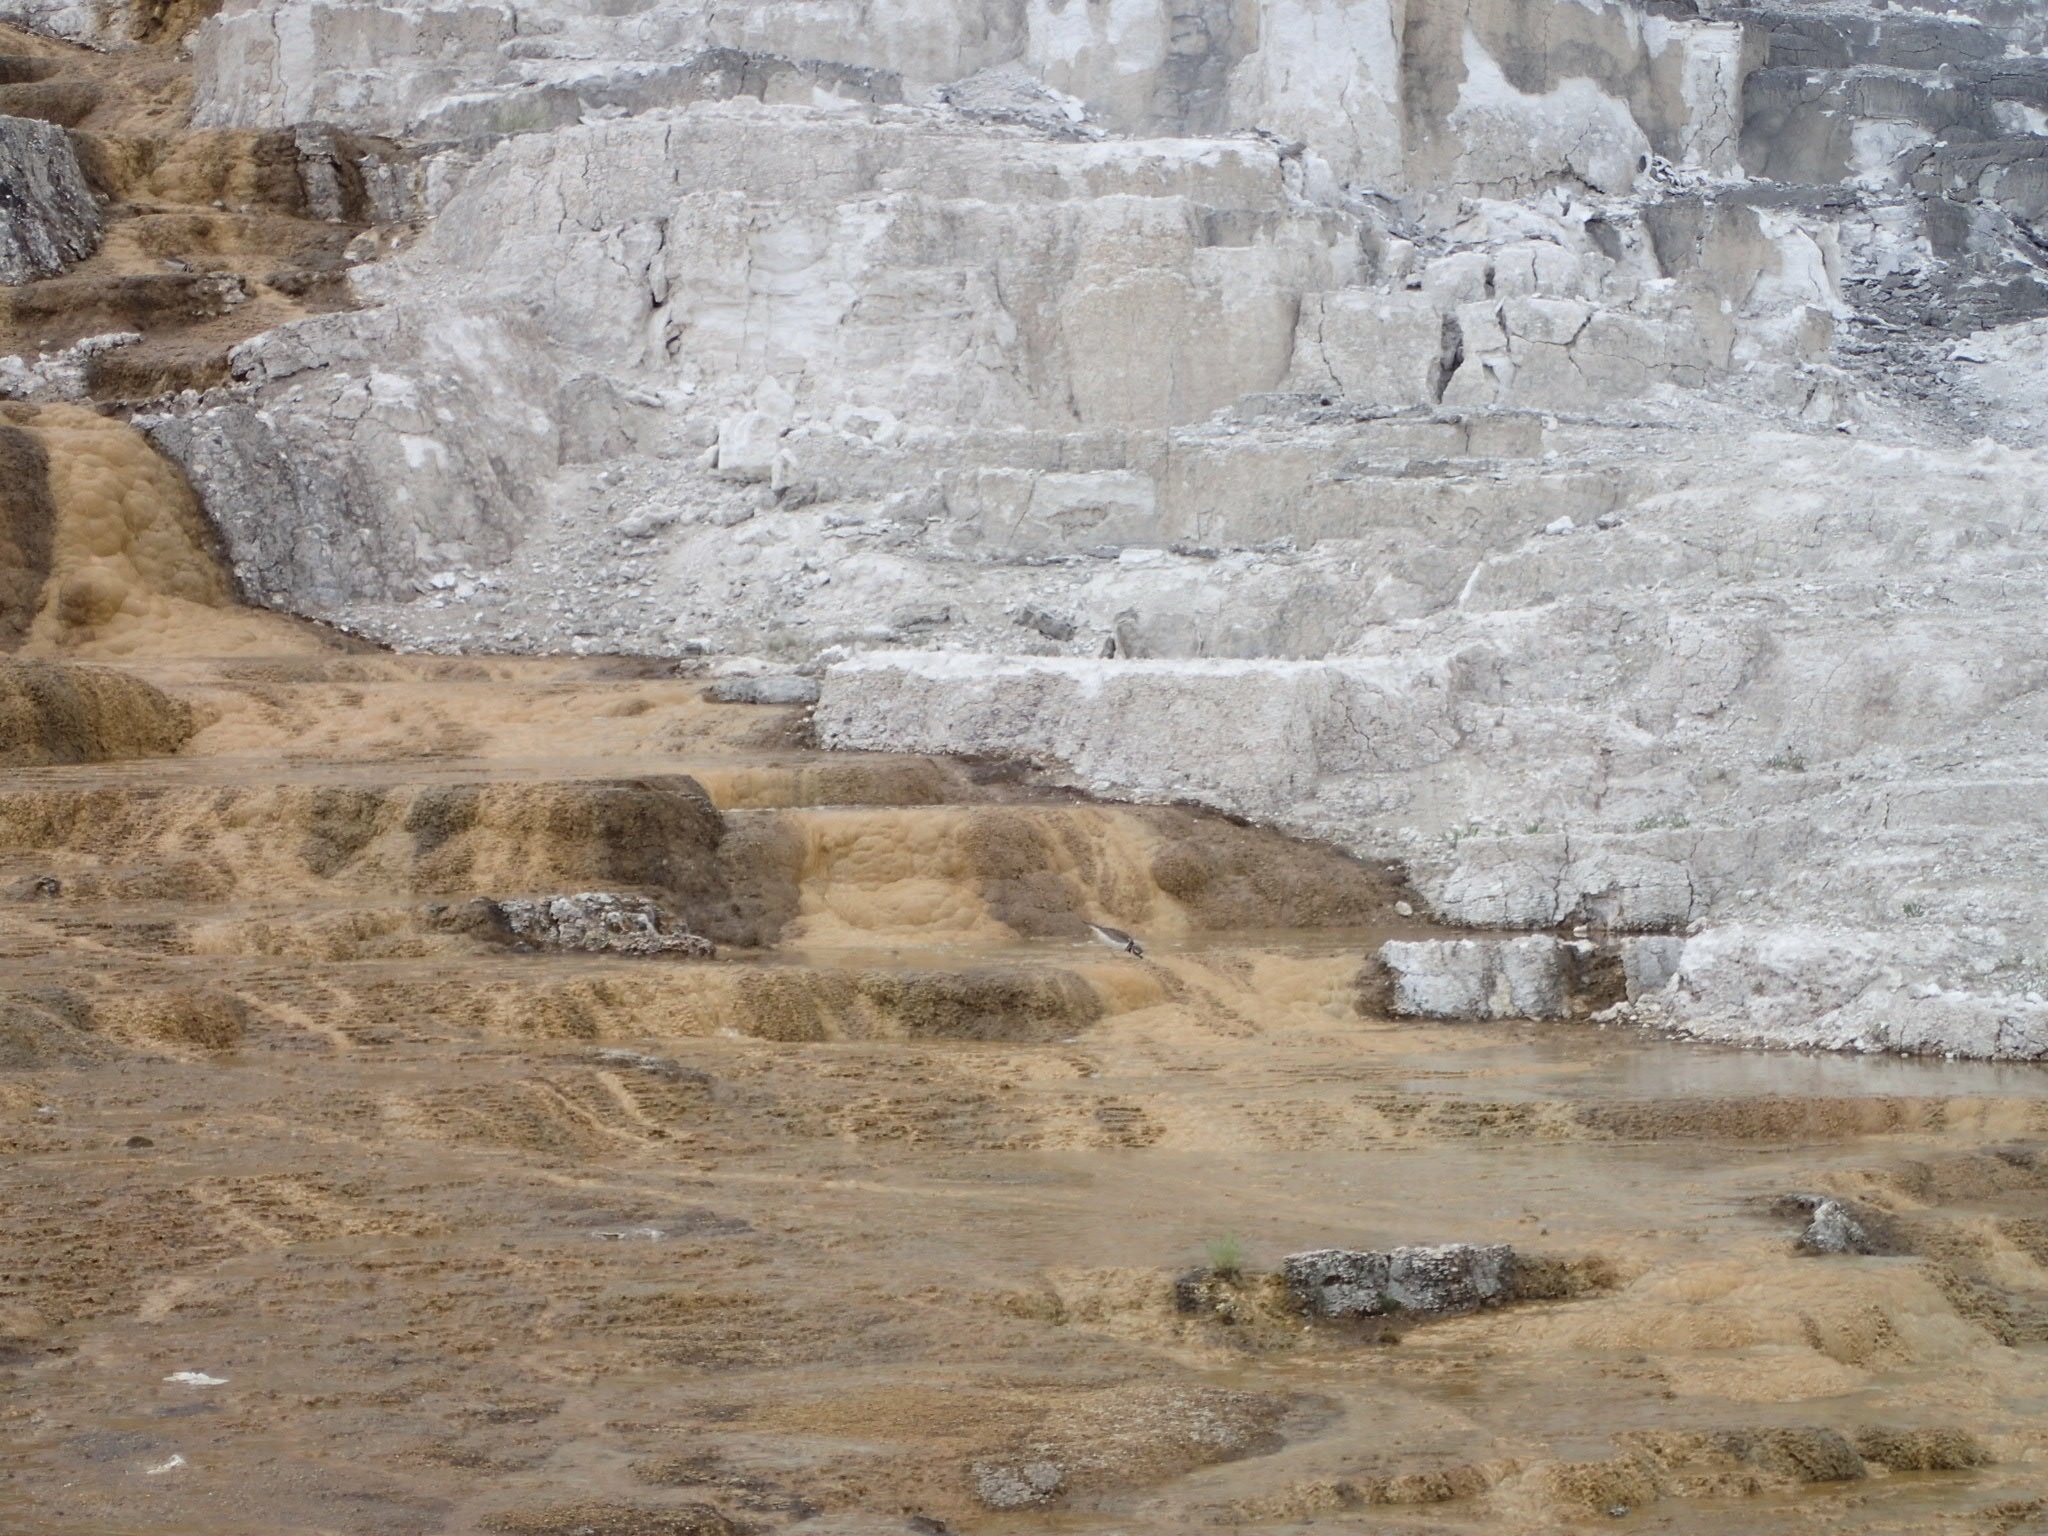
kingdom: Animalia
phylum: Chordata
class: Aves
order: Charadriiformes
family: Charadriidae
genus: Charadrius
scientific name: Charadrius vociferus
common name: Killdeer
